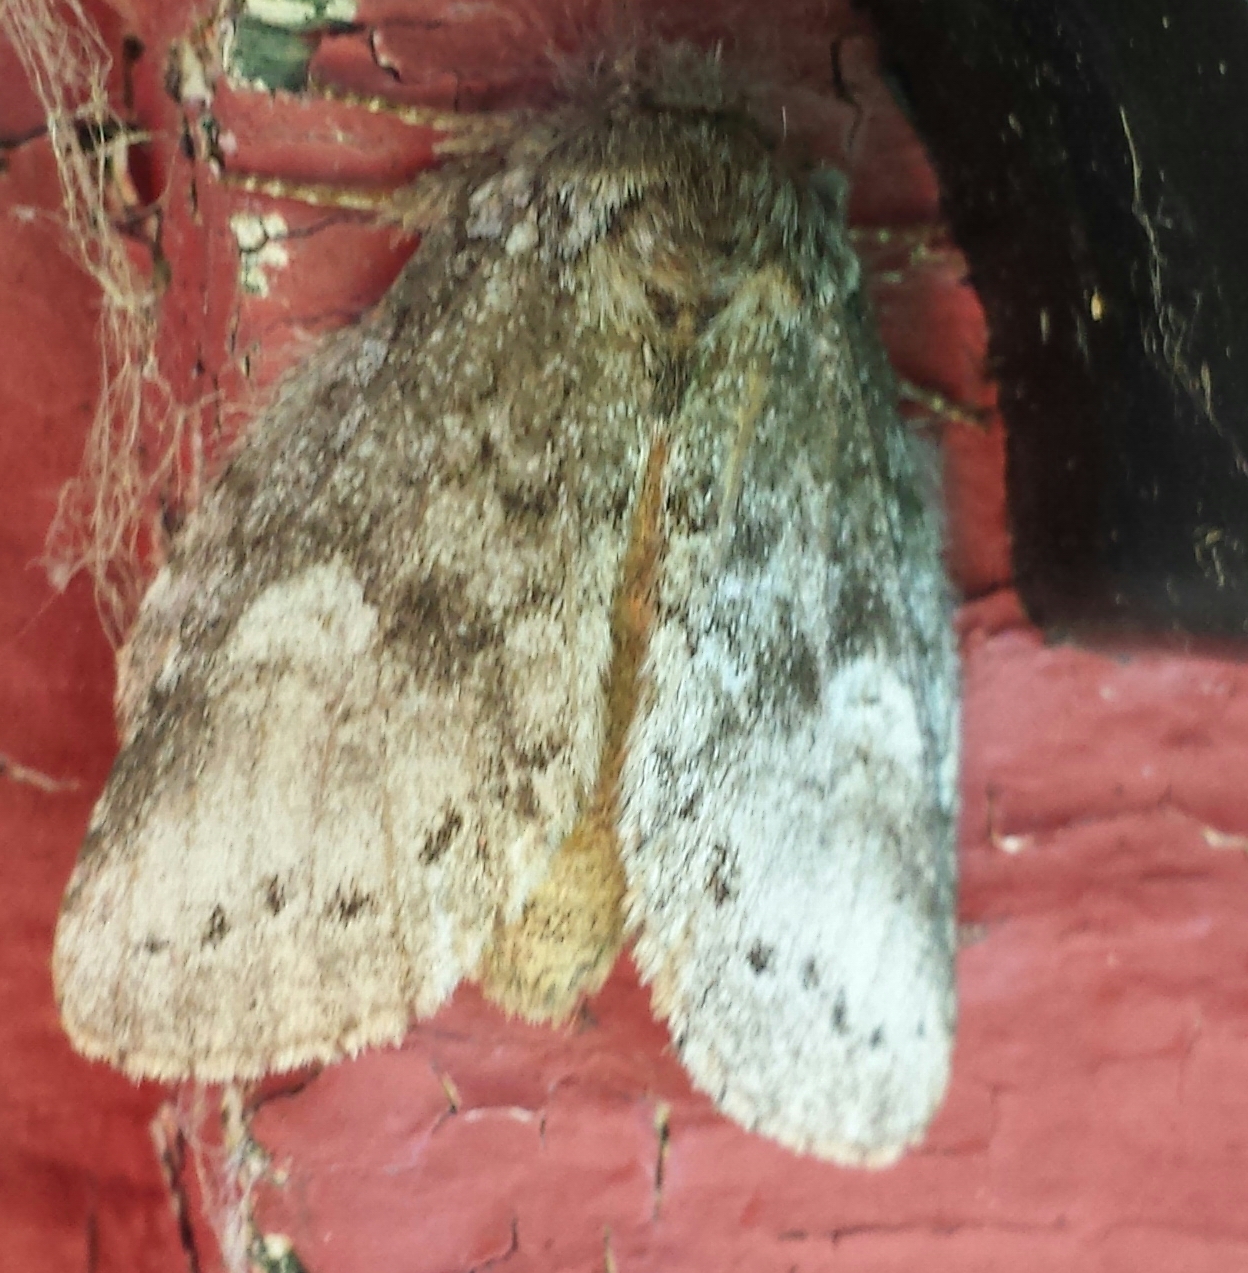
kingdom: Animalia
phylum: Arthropoda
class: Insecta
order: Lepidoptera
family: Notodontidae
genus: Disphragis
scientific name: Disphragis Cecrita guttivitta
